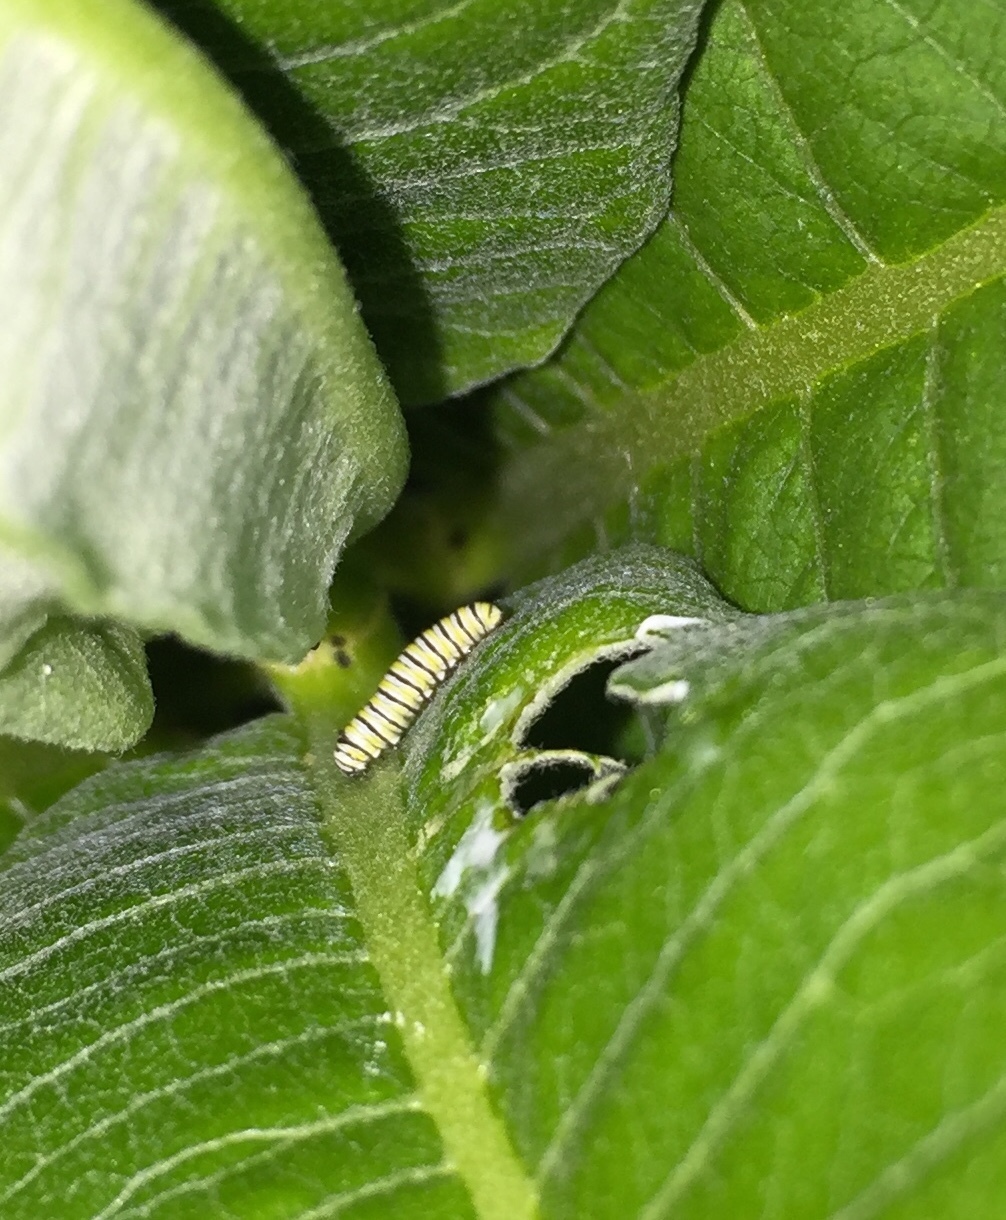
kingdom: Animalia
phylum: Arthropoda
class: Insecta
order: Lepidoptera
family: Nymphalidae
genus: Danaus
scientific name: Danaus plexippus
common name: Monarch
